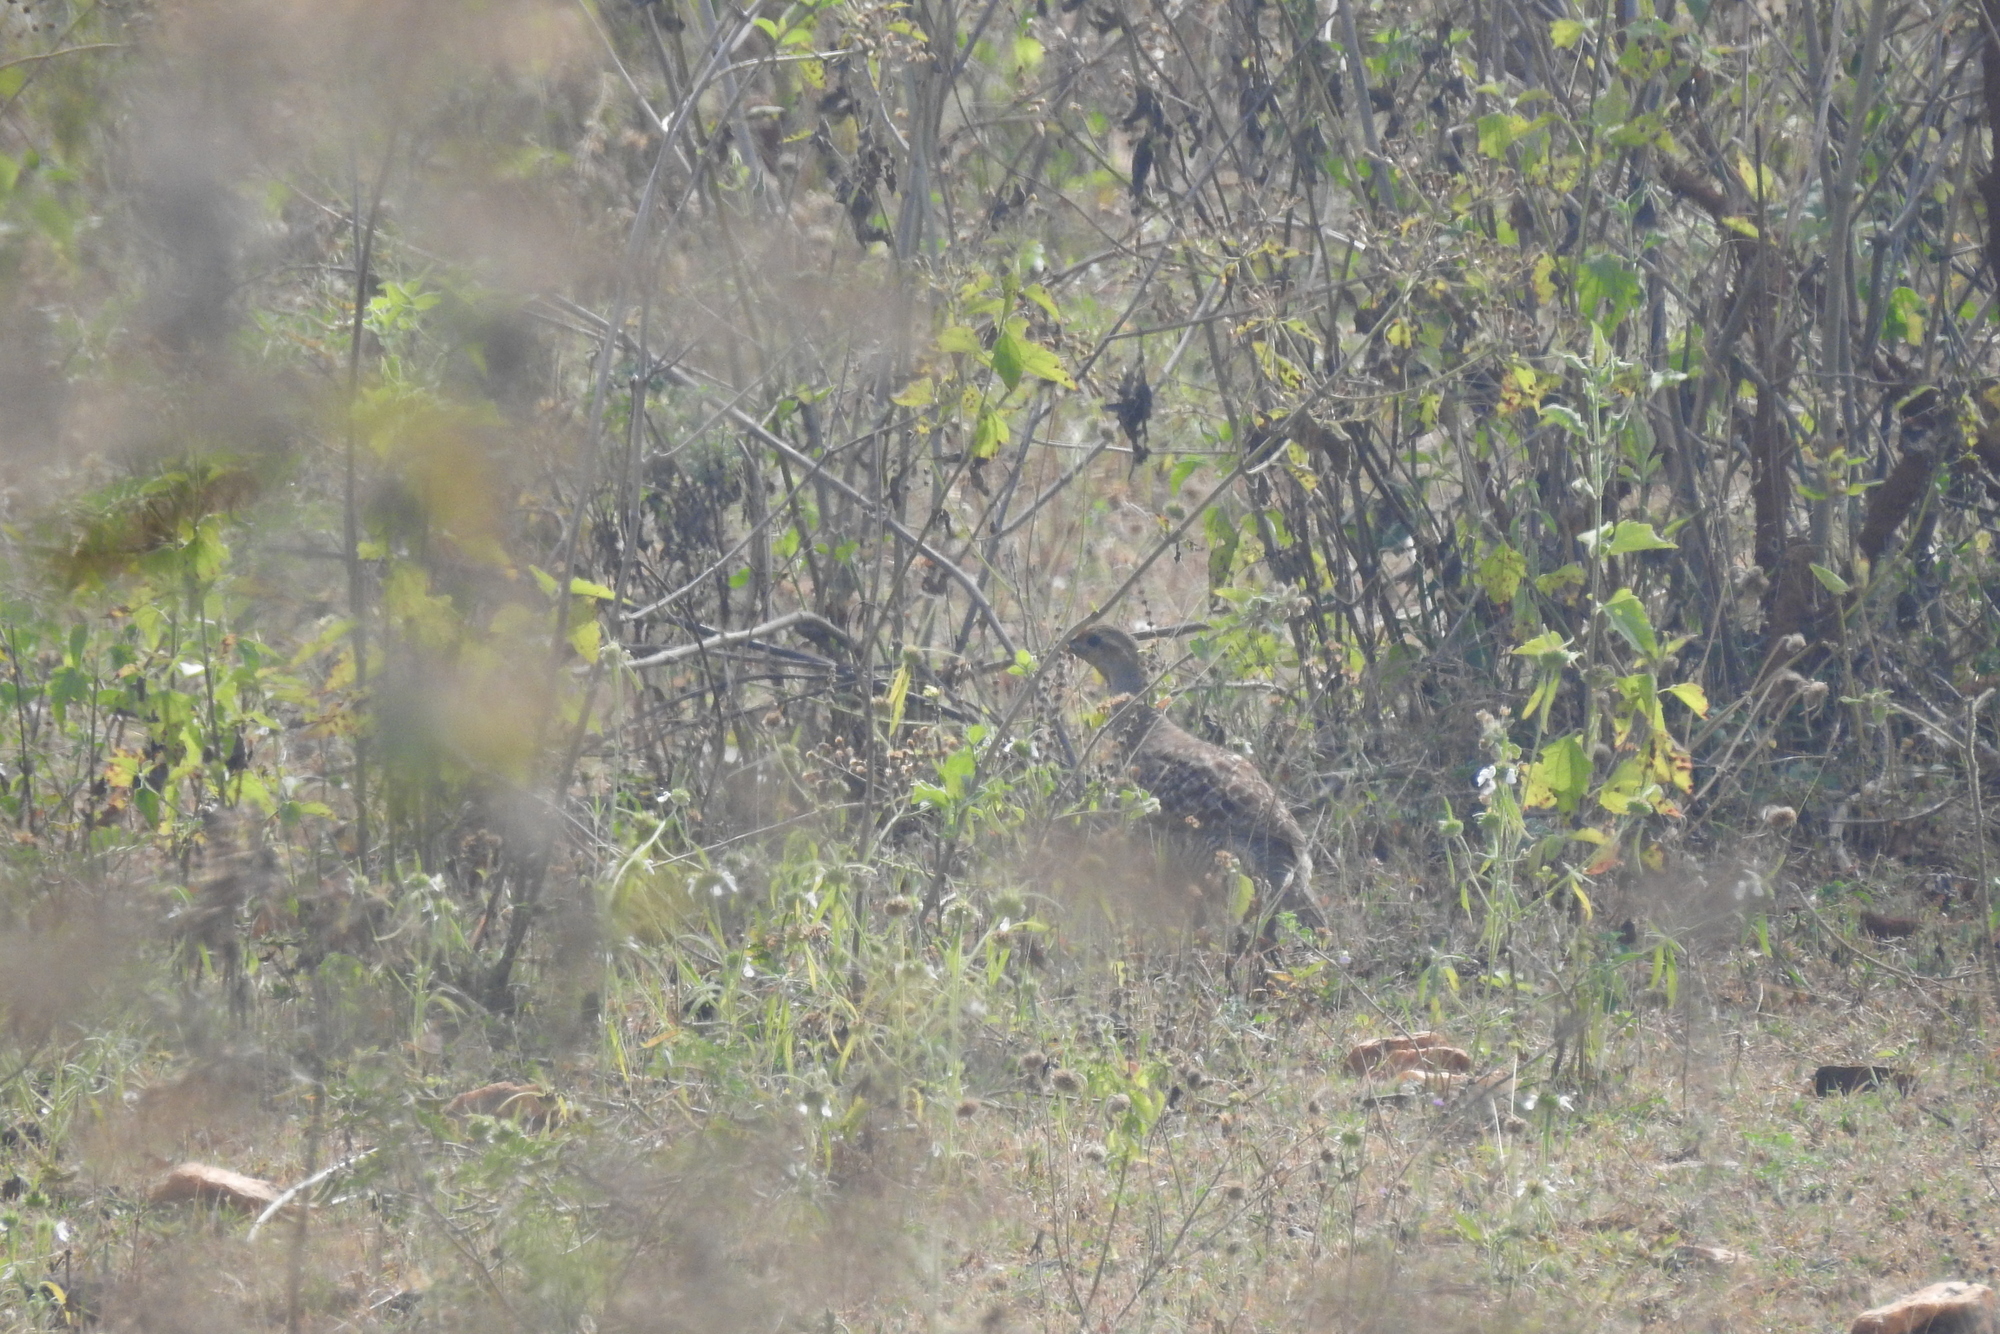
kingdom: Animalia
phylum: Chordata
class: Aves
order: Galliformes
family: Phasianidae
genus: Ortygornis
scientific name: Ortygornis pondicerianus
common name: Grey francolin
